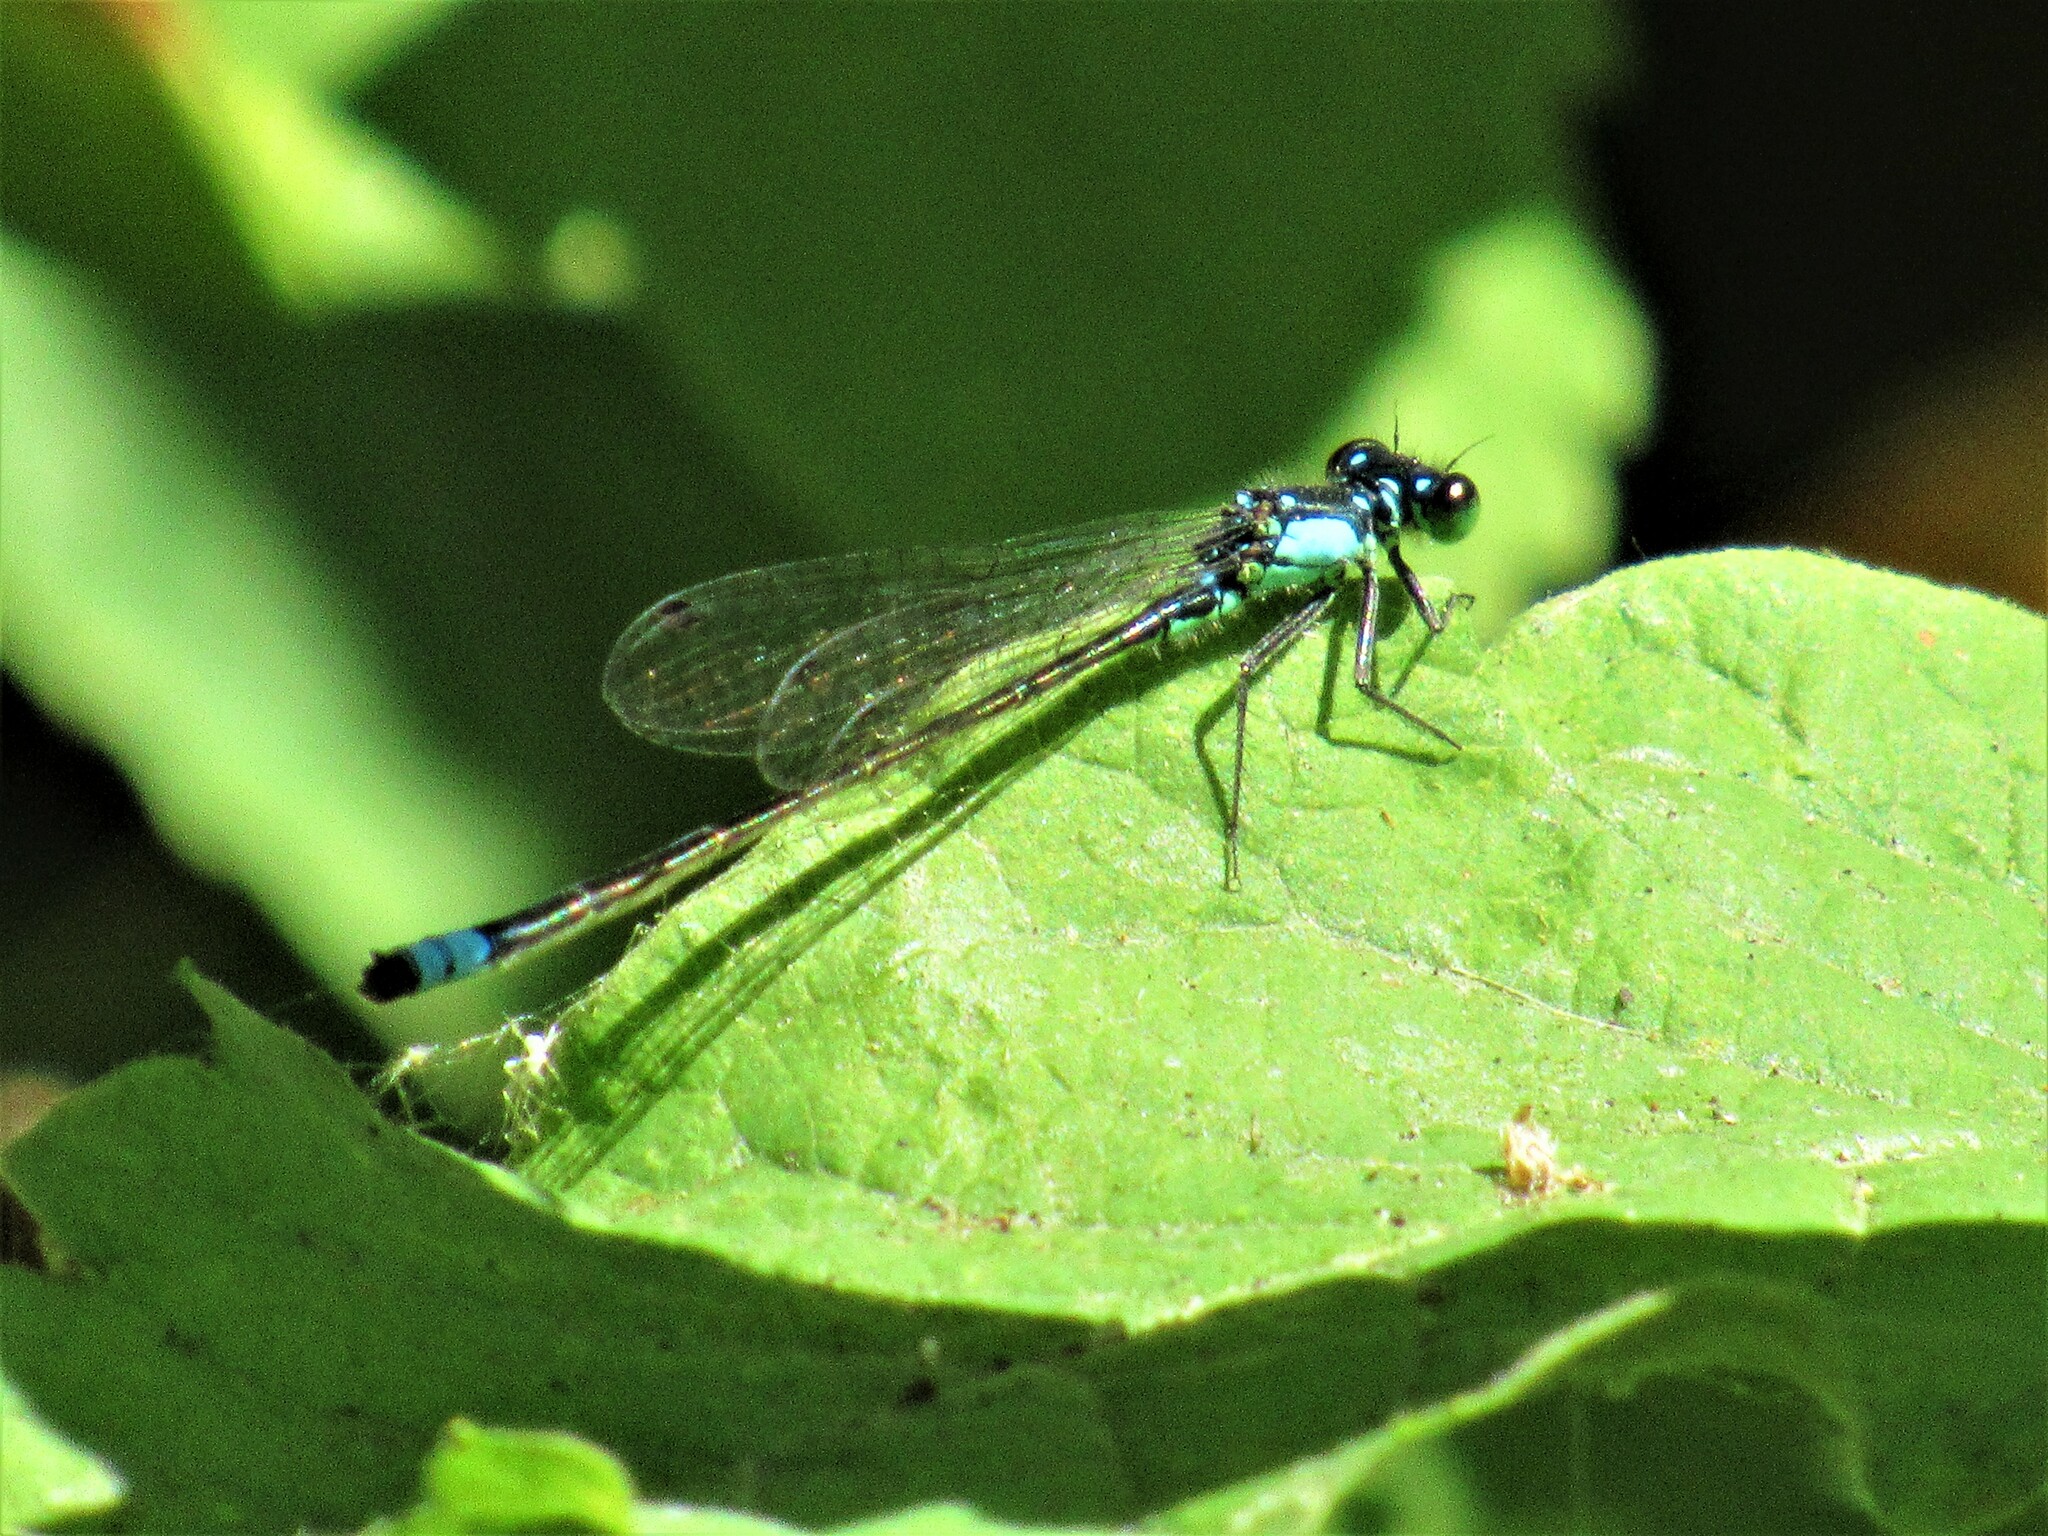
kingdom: Animalia
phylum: Arthropoda
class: Insecta
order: Odonata
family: Coenagrionidae
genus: Ischnura
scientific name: Ischnura cervula
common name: Pacific forktail
